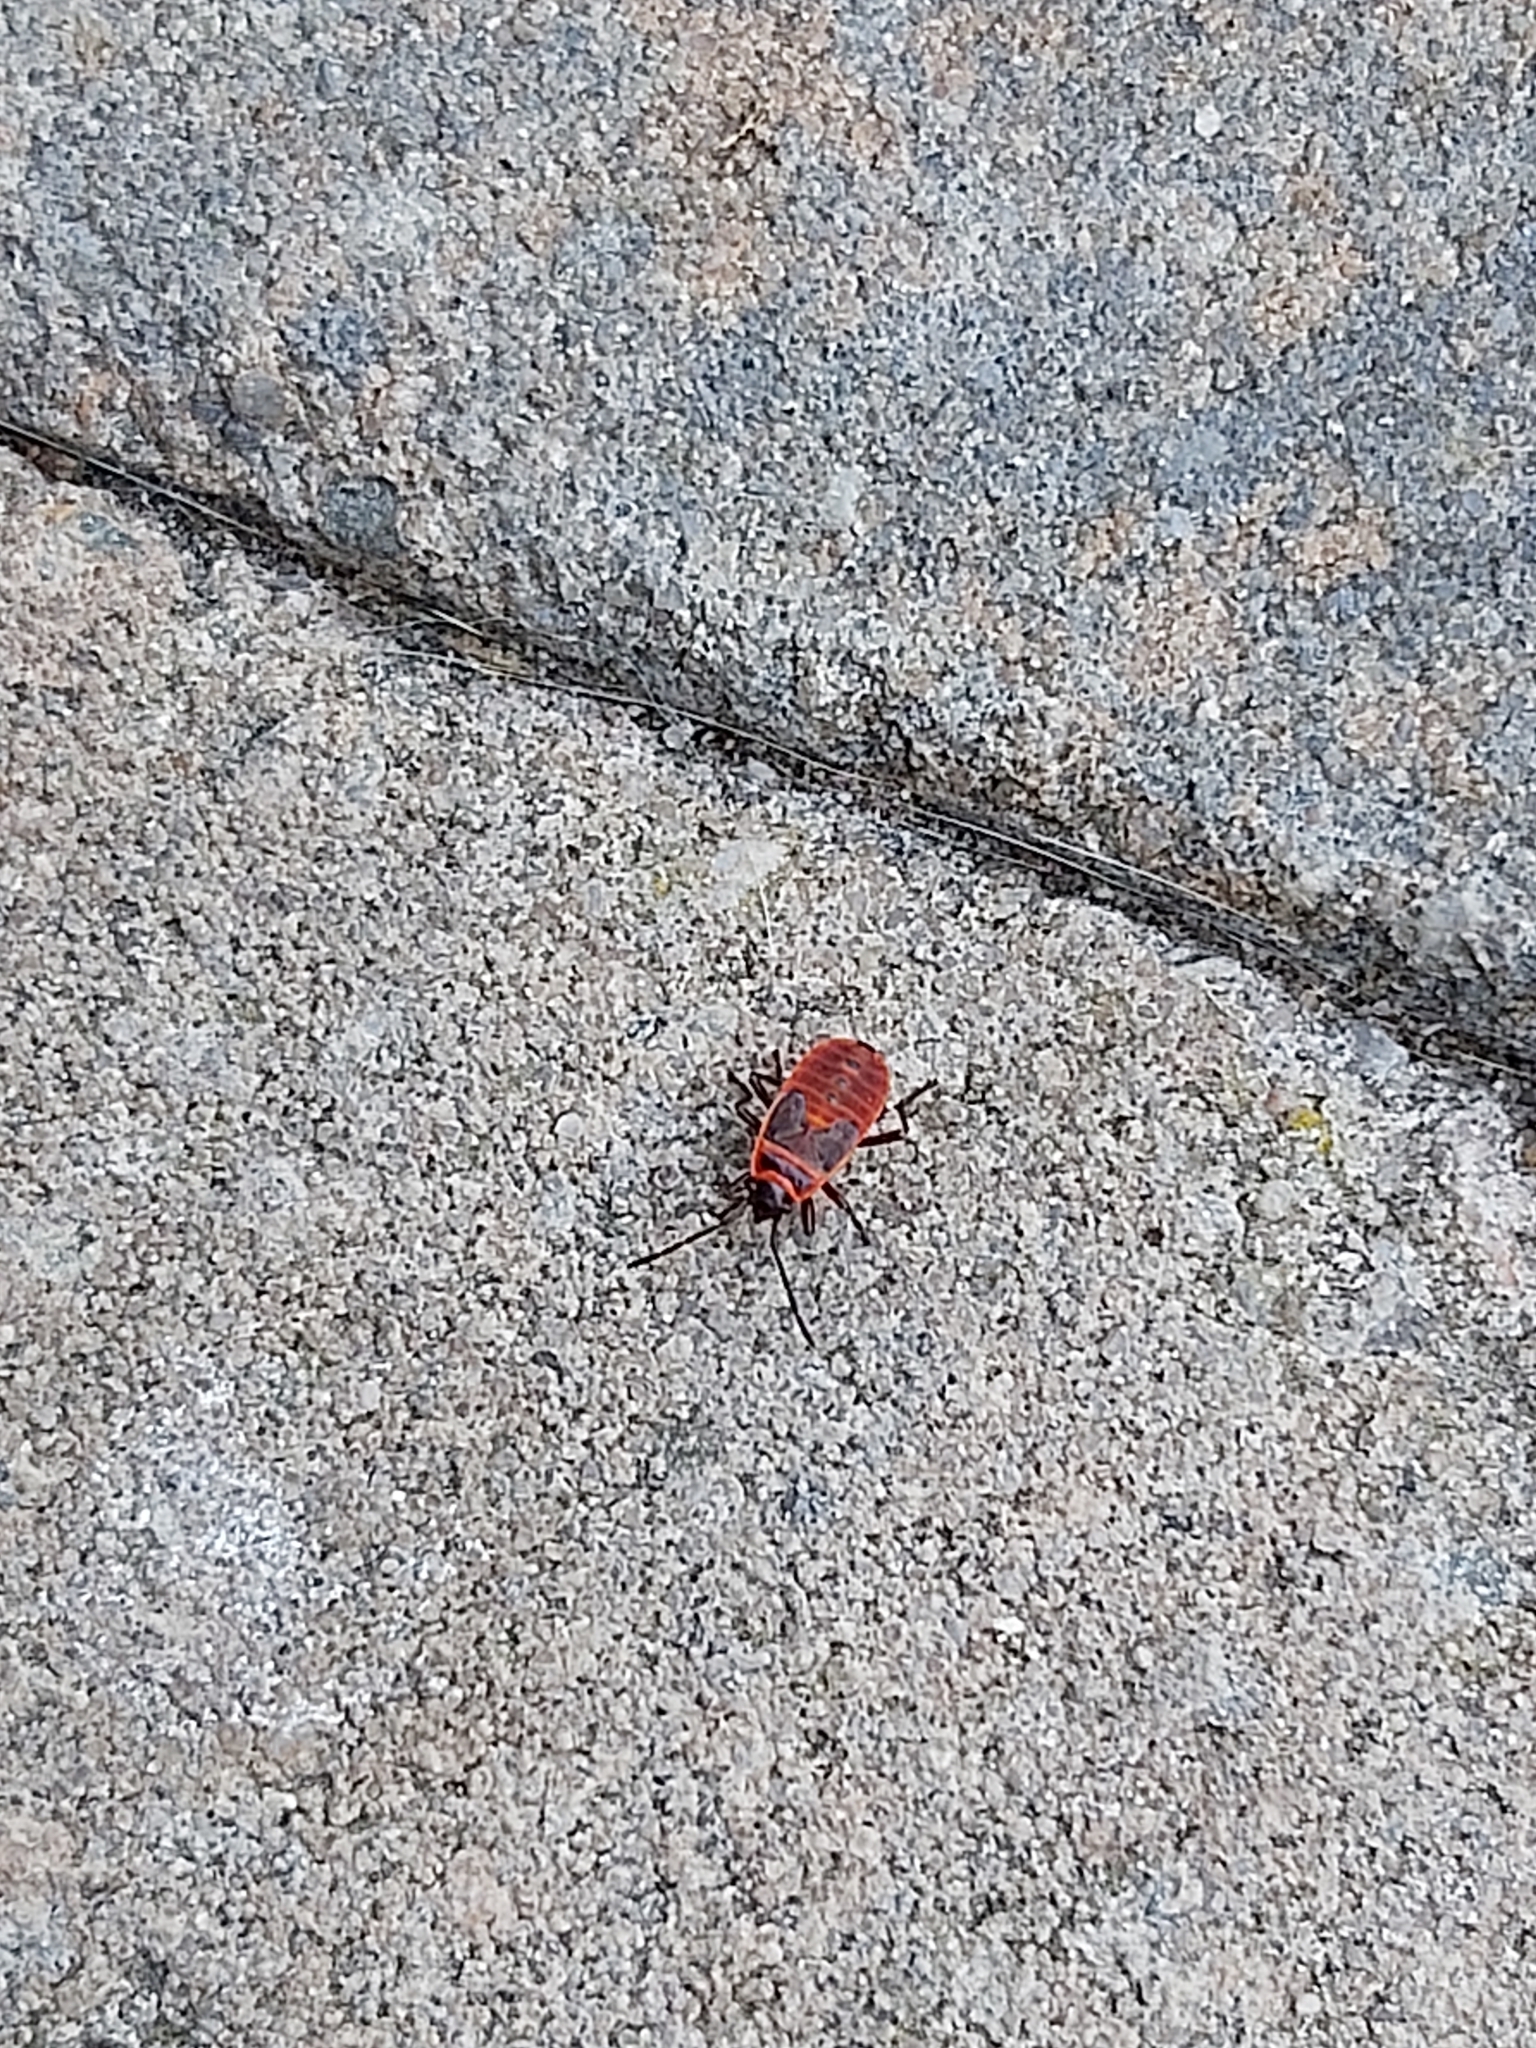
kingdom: Animalia
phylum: Arthropoda
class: Insecta
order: Hemiptera
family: Pyrrhocoridae
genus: Pyrrhocoris
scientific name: Pyrrhocoris apterus
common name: Firebug
